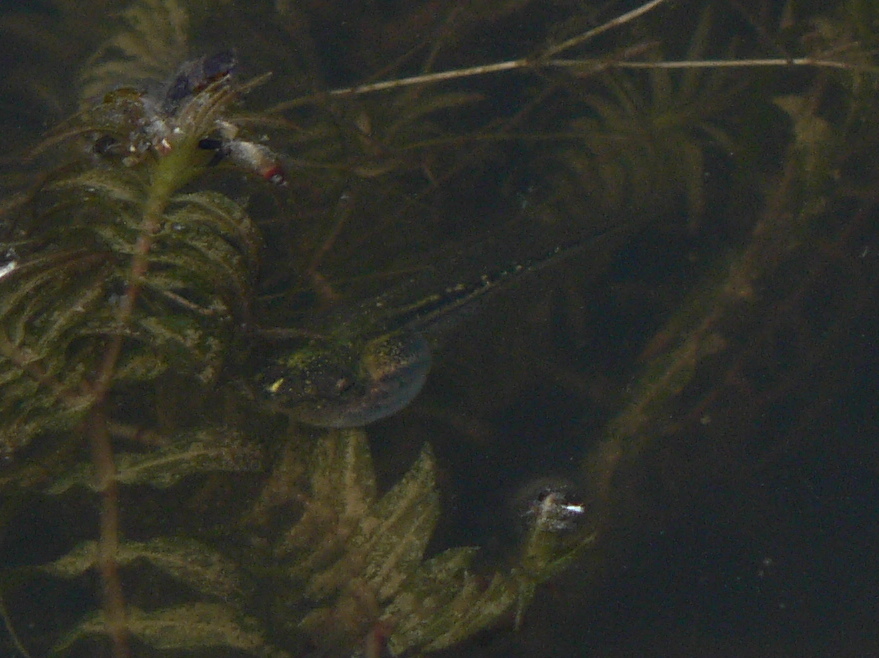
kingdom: Animalia
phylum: Chordata
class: Amphibia
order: Anura
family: Hylidae
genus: Hyla
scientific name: Hyla meridionalis
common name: Stripeless tree frog
